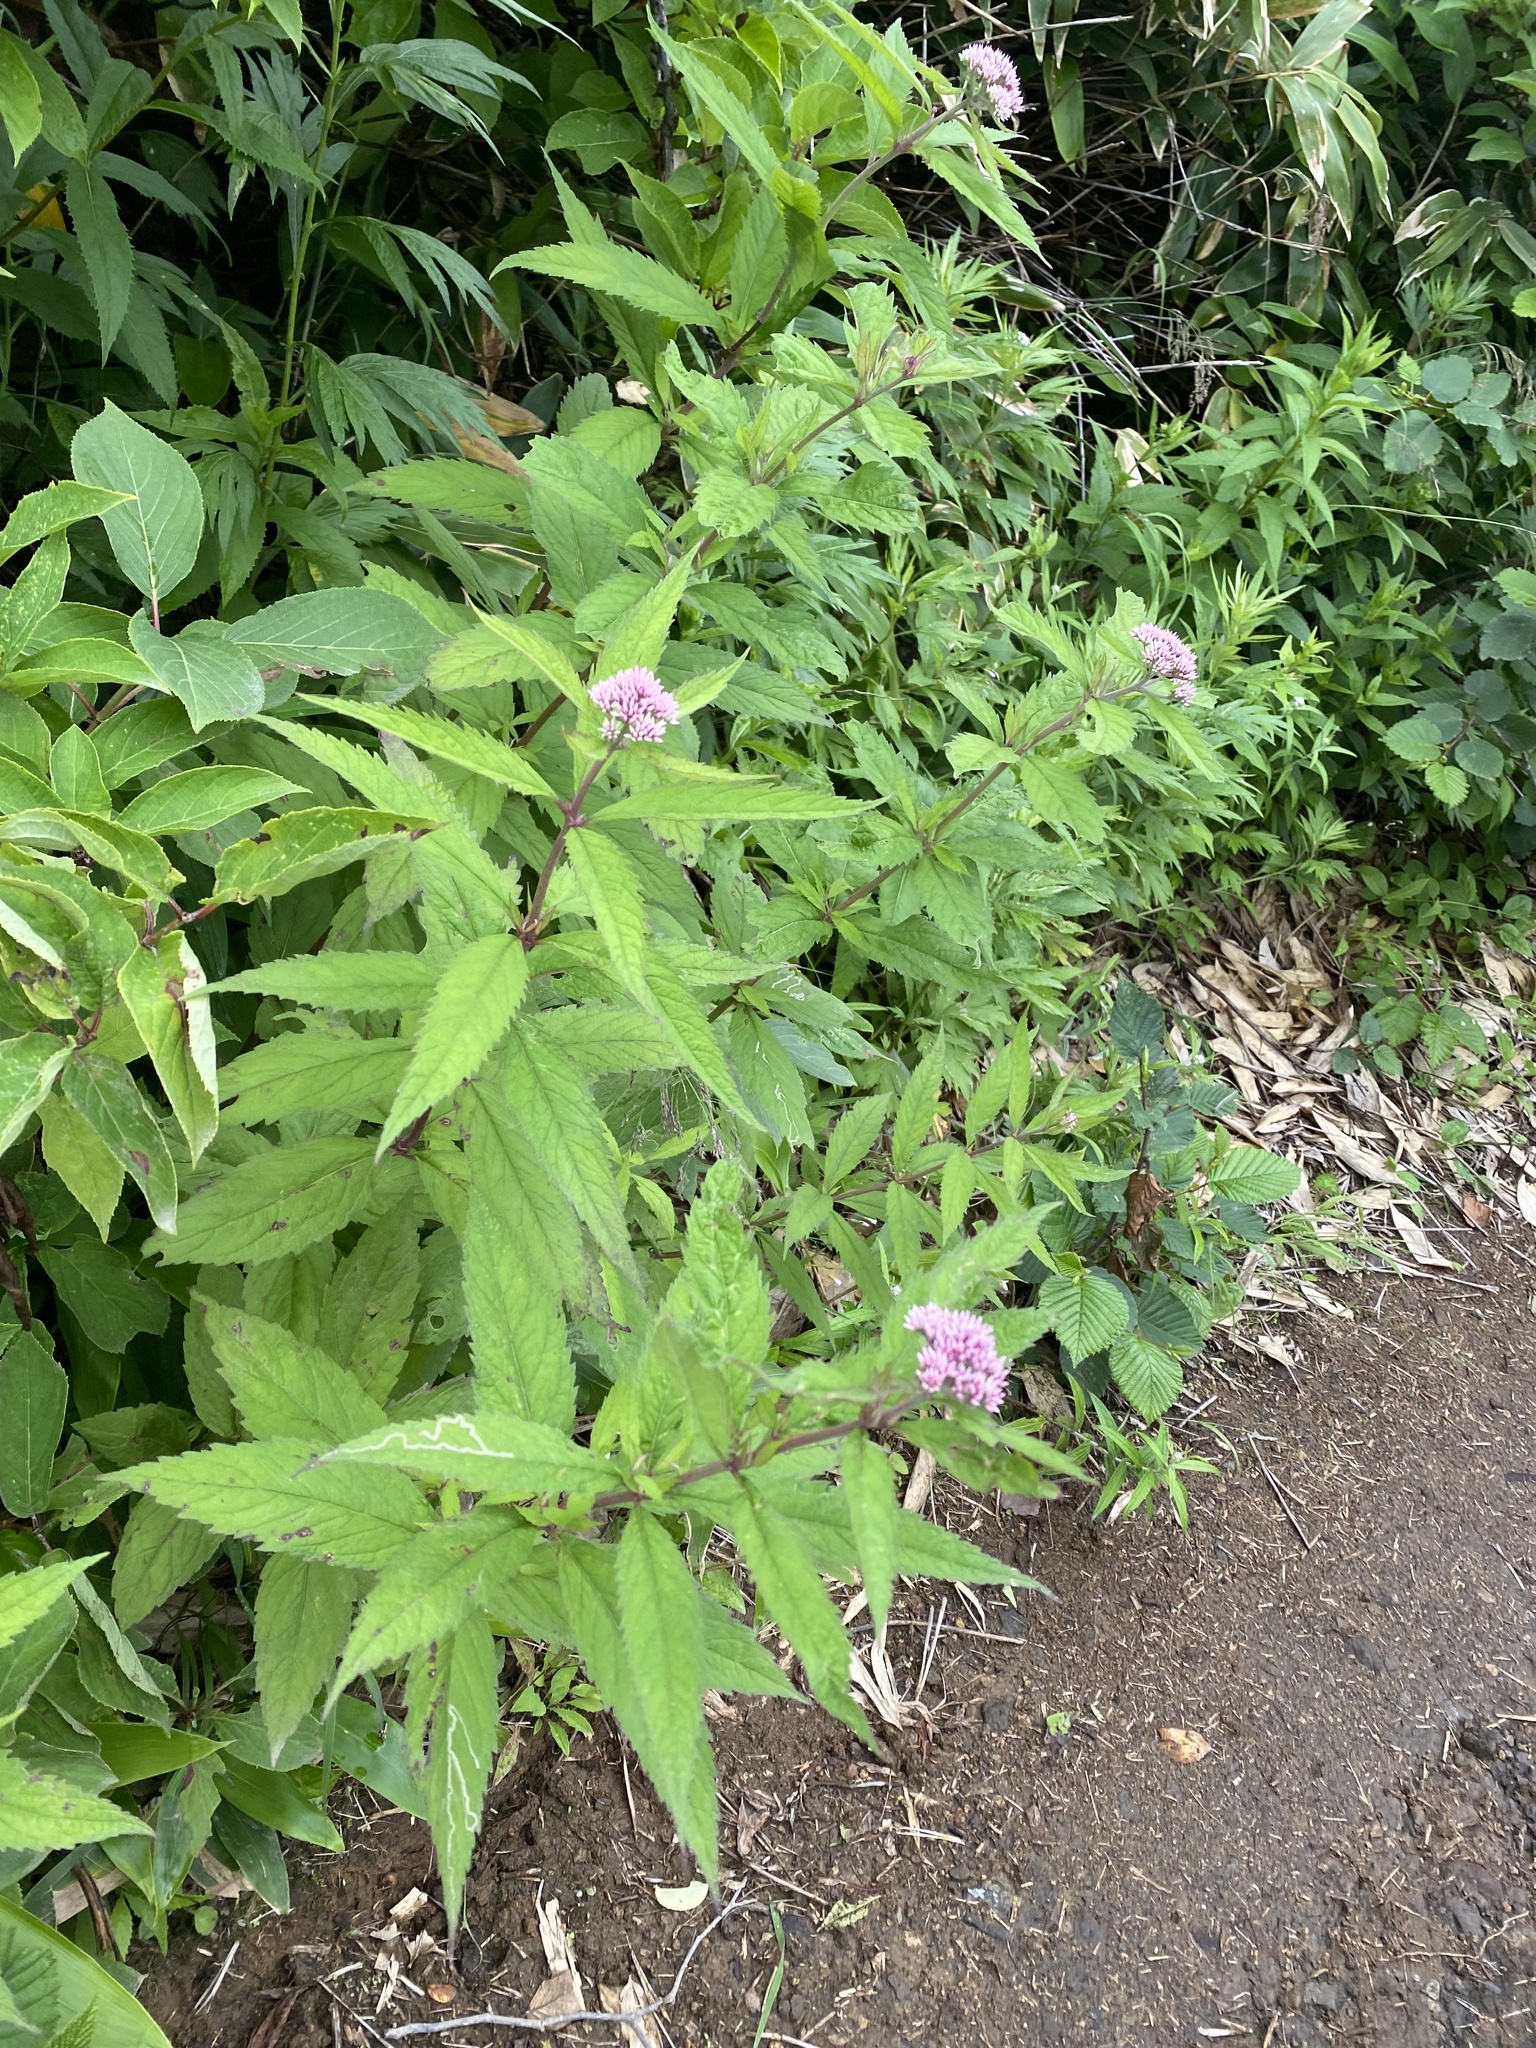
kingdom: Plantae
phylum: Tracheophyta
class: Magnoliopsida
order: Asterales
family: Asteraceae
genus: Eupatorium
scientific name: Eupatorium glehnii
